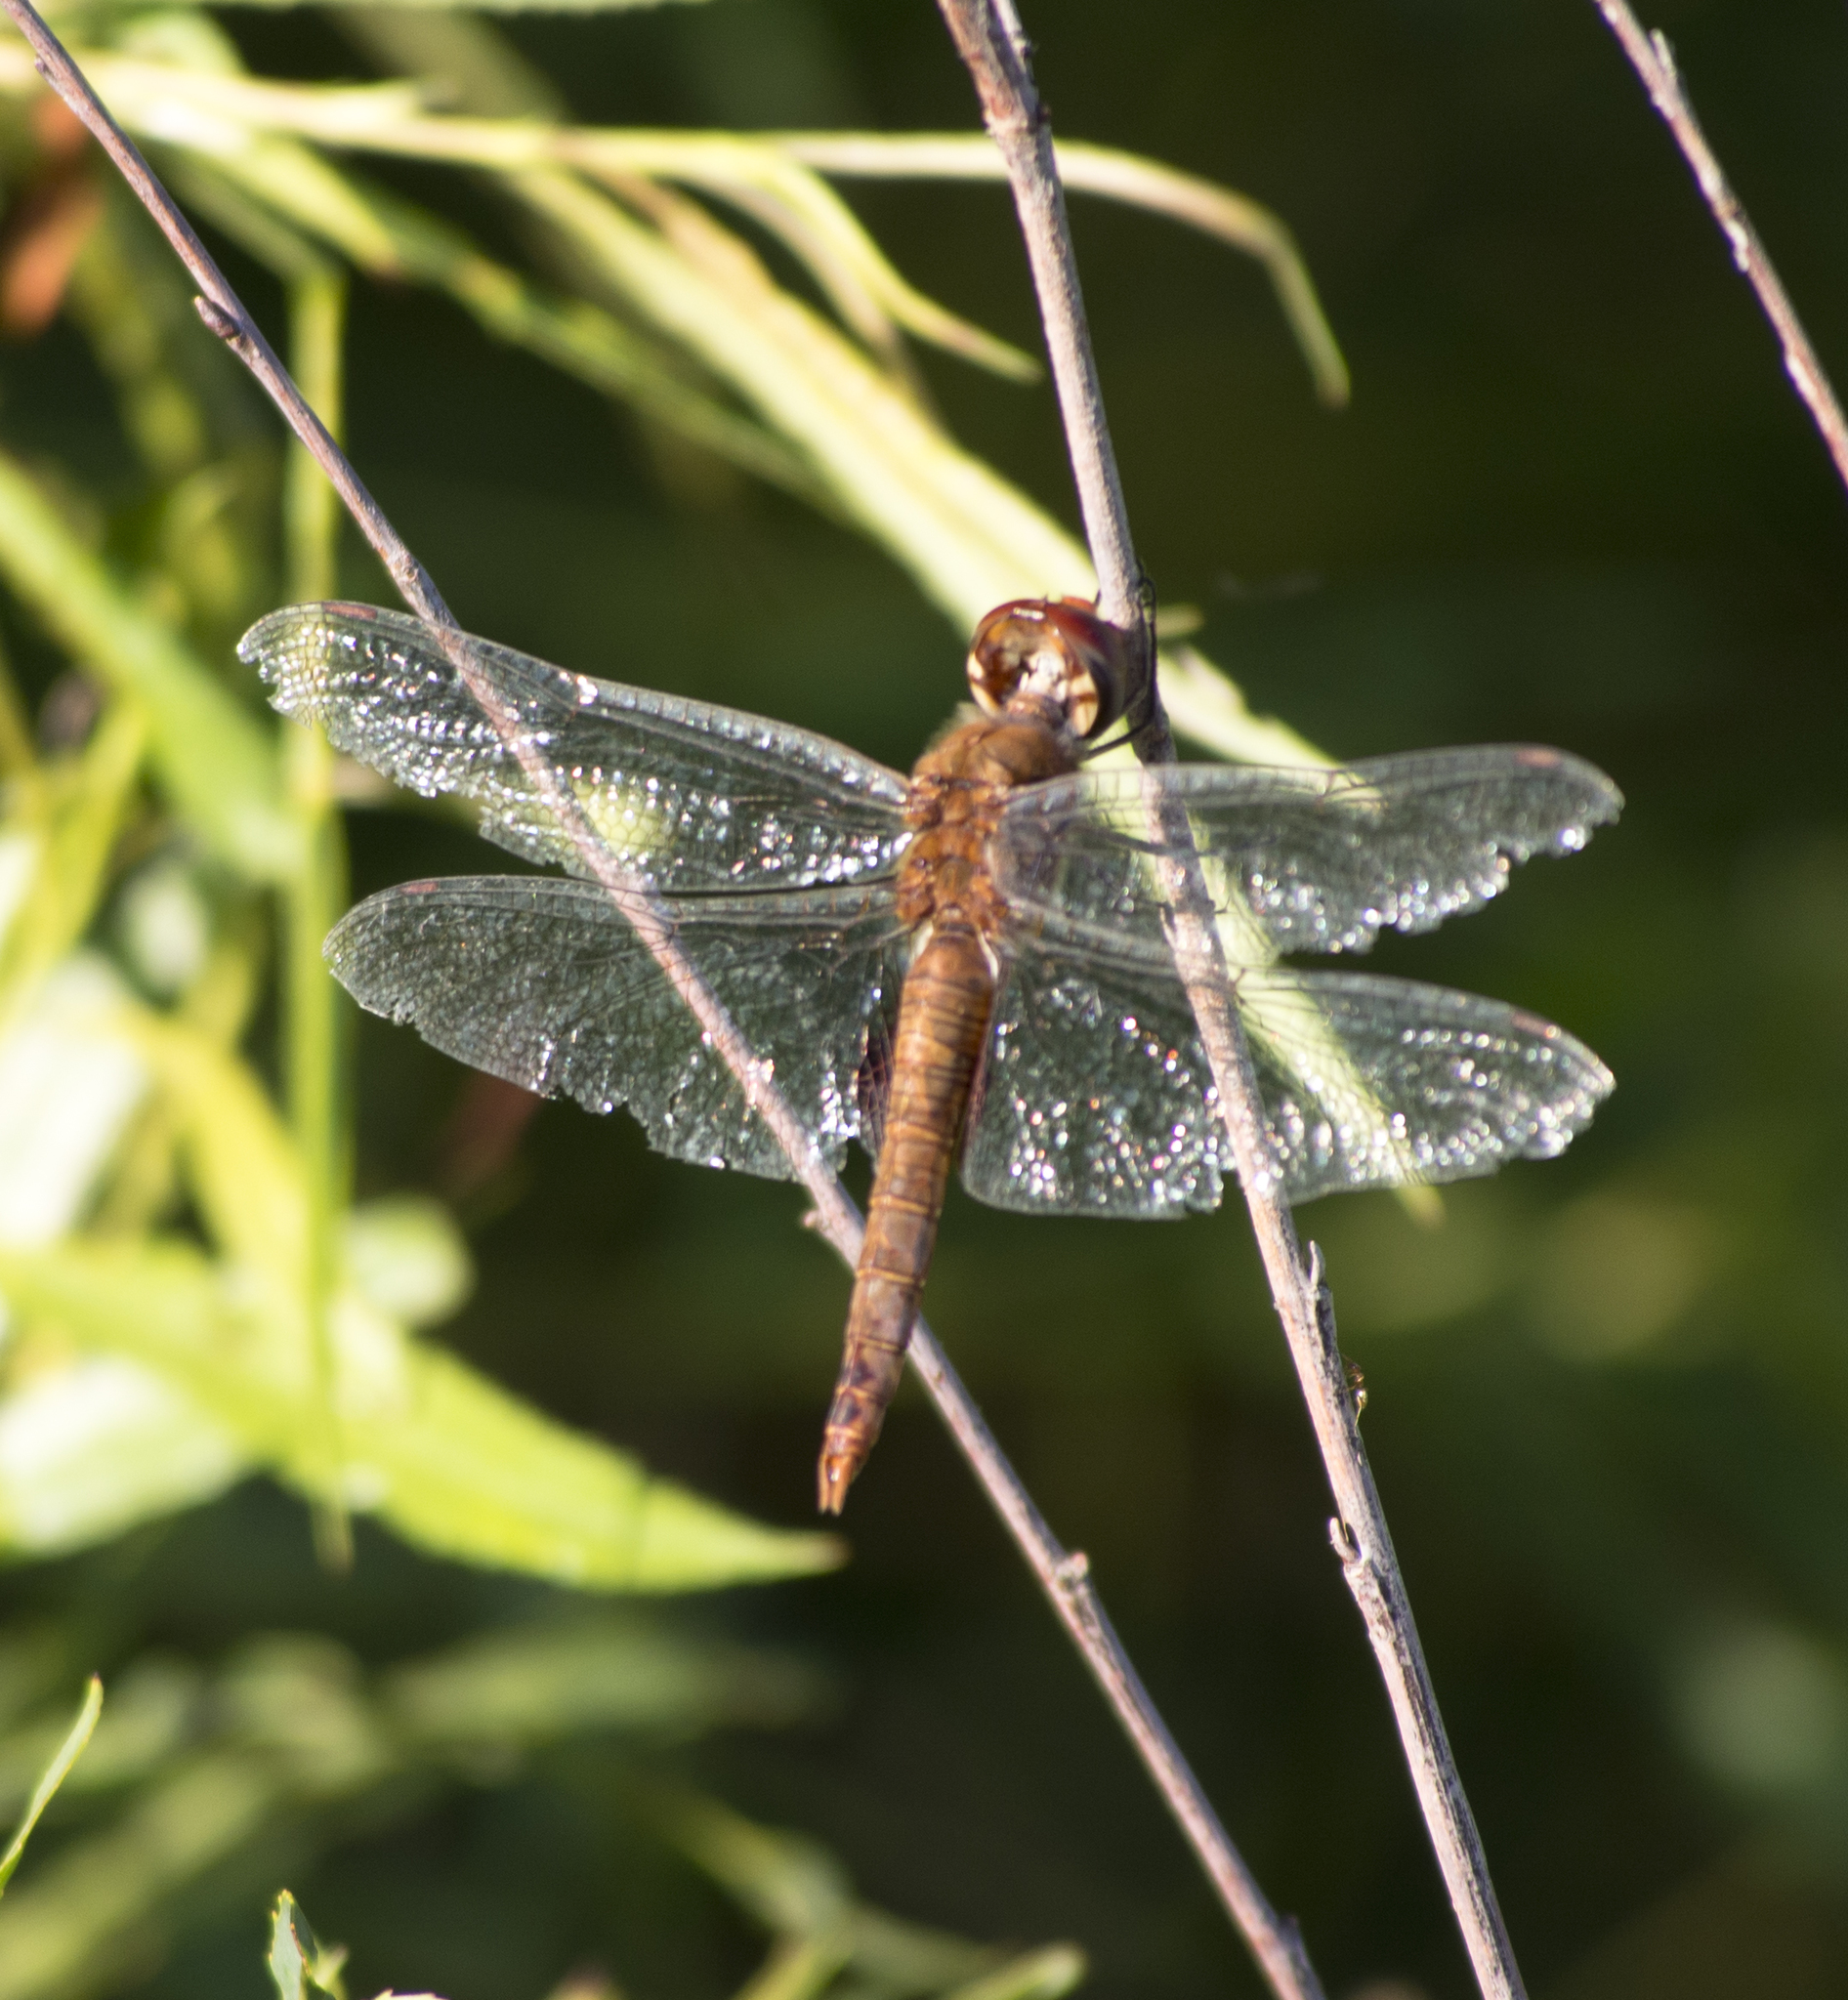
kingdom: Animalia
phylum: Arthropoda
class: Insecta
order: Odonata
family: Libellulidae
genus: Pantala
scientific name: Pantala hymenaea
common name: Spot-winged glider
